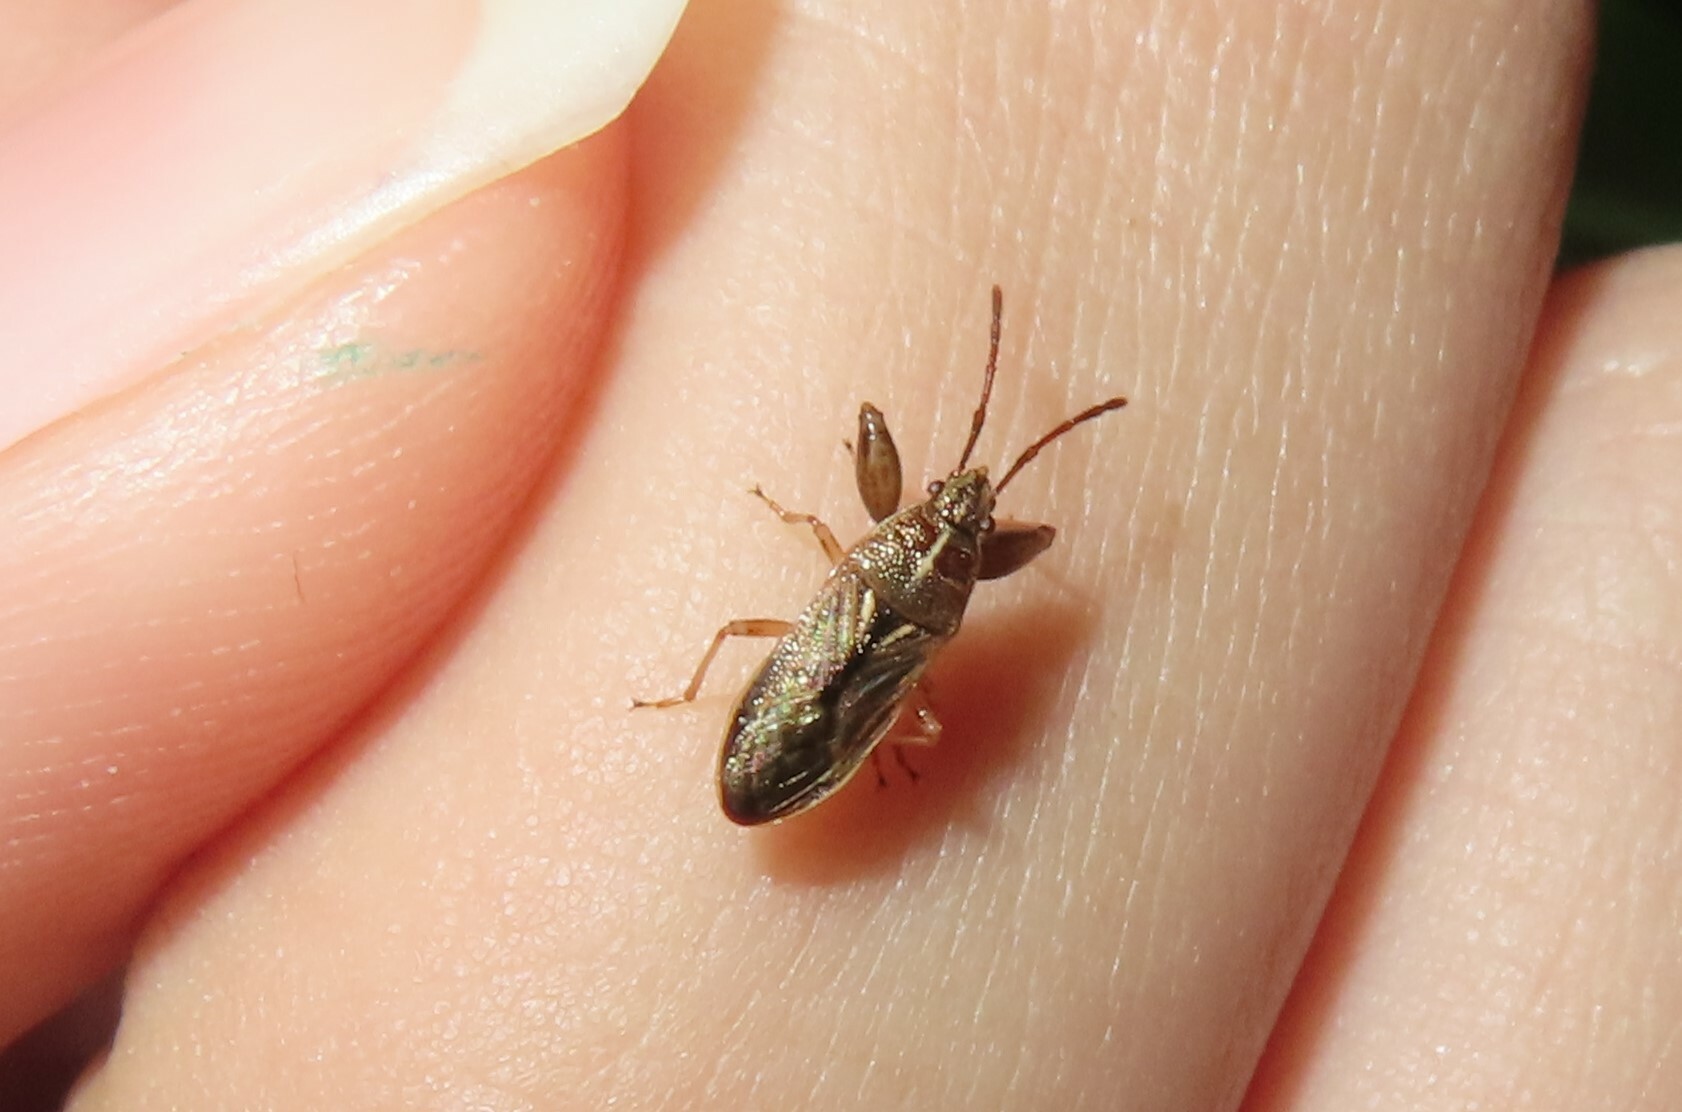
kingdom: Animalia
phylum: Arthropoda
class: Insecta
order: Hemiptera
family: Pachygronthidae
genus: Oedancala
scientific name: Oedancala dorsalis
